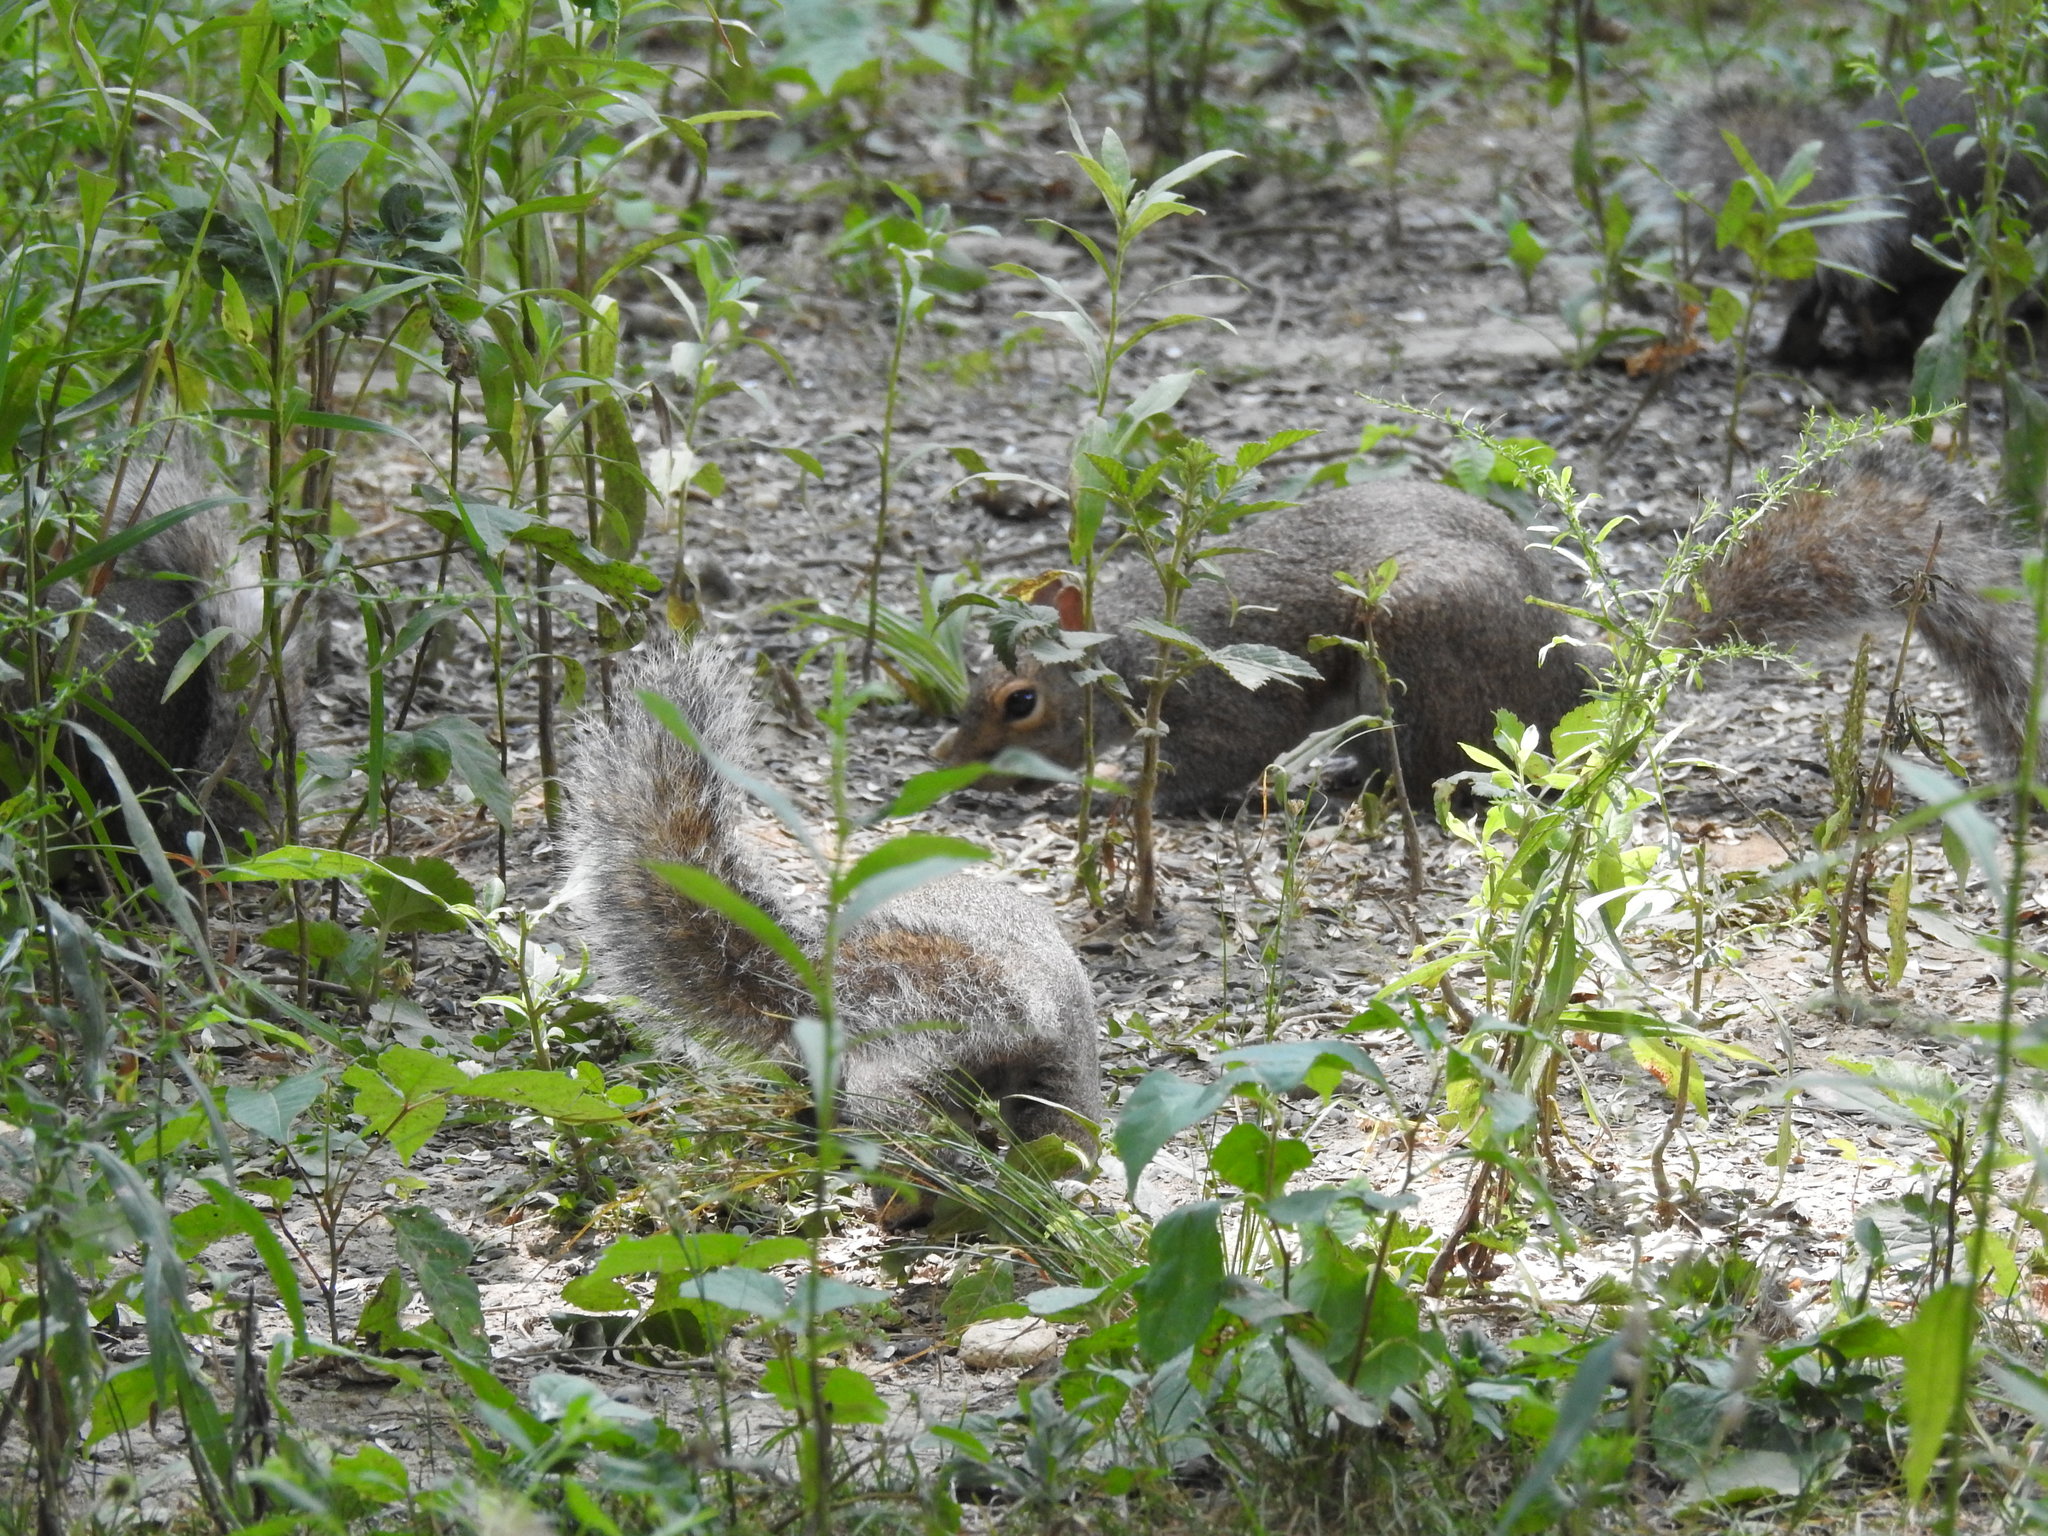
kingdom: Animalia
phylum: Chordata
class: Mammalia
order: Rodentia
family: Sciuridae
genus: Sciurus
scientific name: Sciurus carolinensis
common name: Eastern gray squirrel
